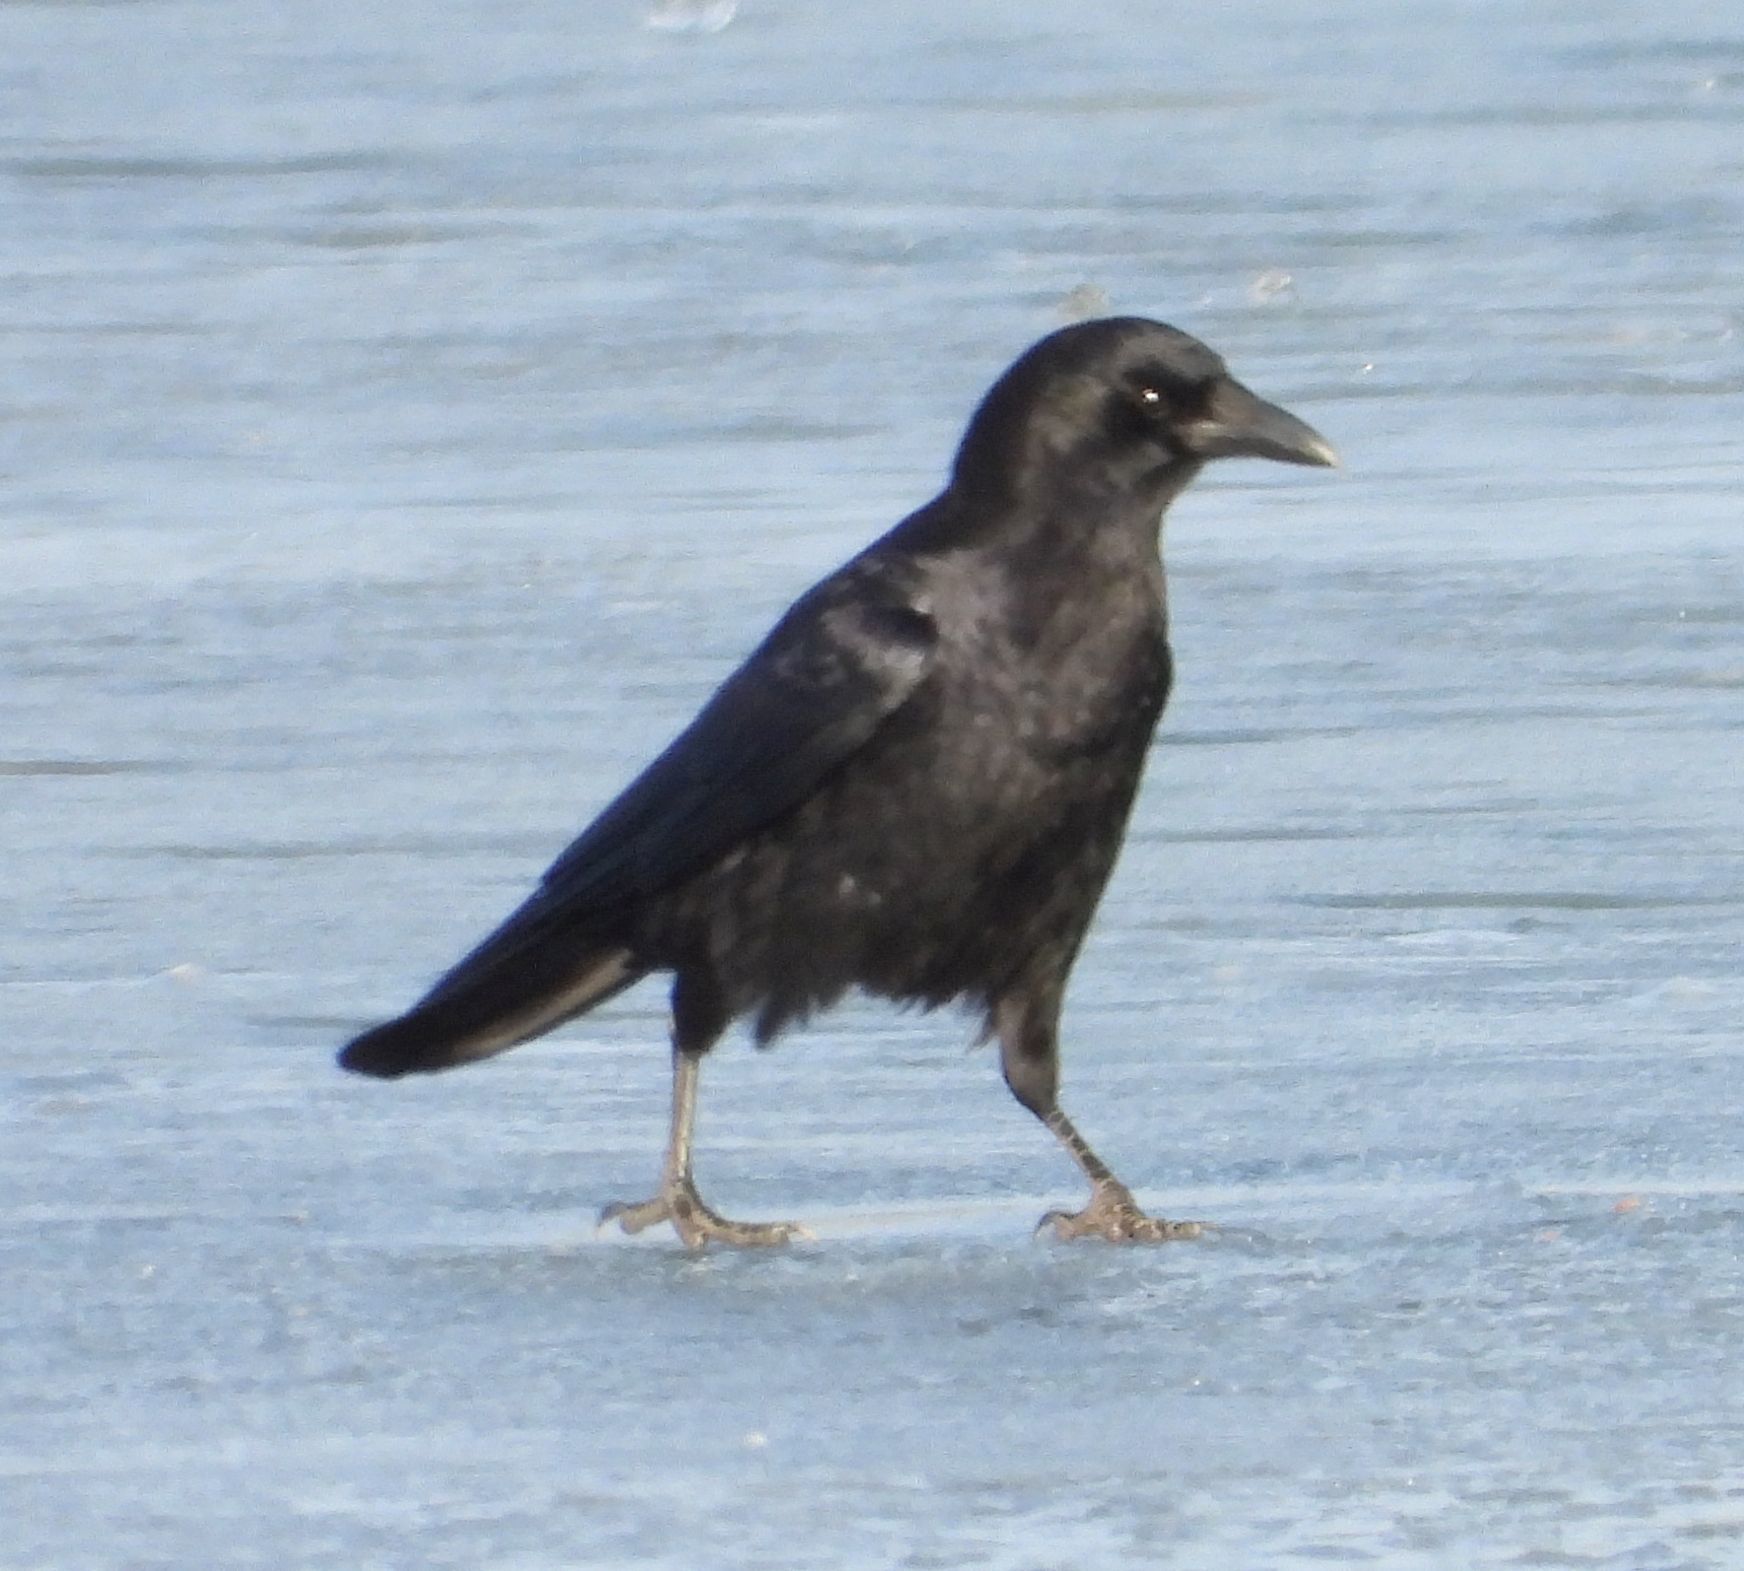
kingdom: Animalia
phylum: Chordata
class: Aves
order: Passeriformes
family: Corvidae
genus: Corvus
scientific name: Corvus brachyrhynchos
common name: American crow
